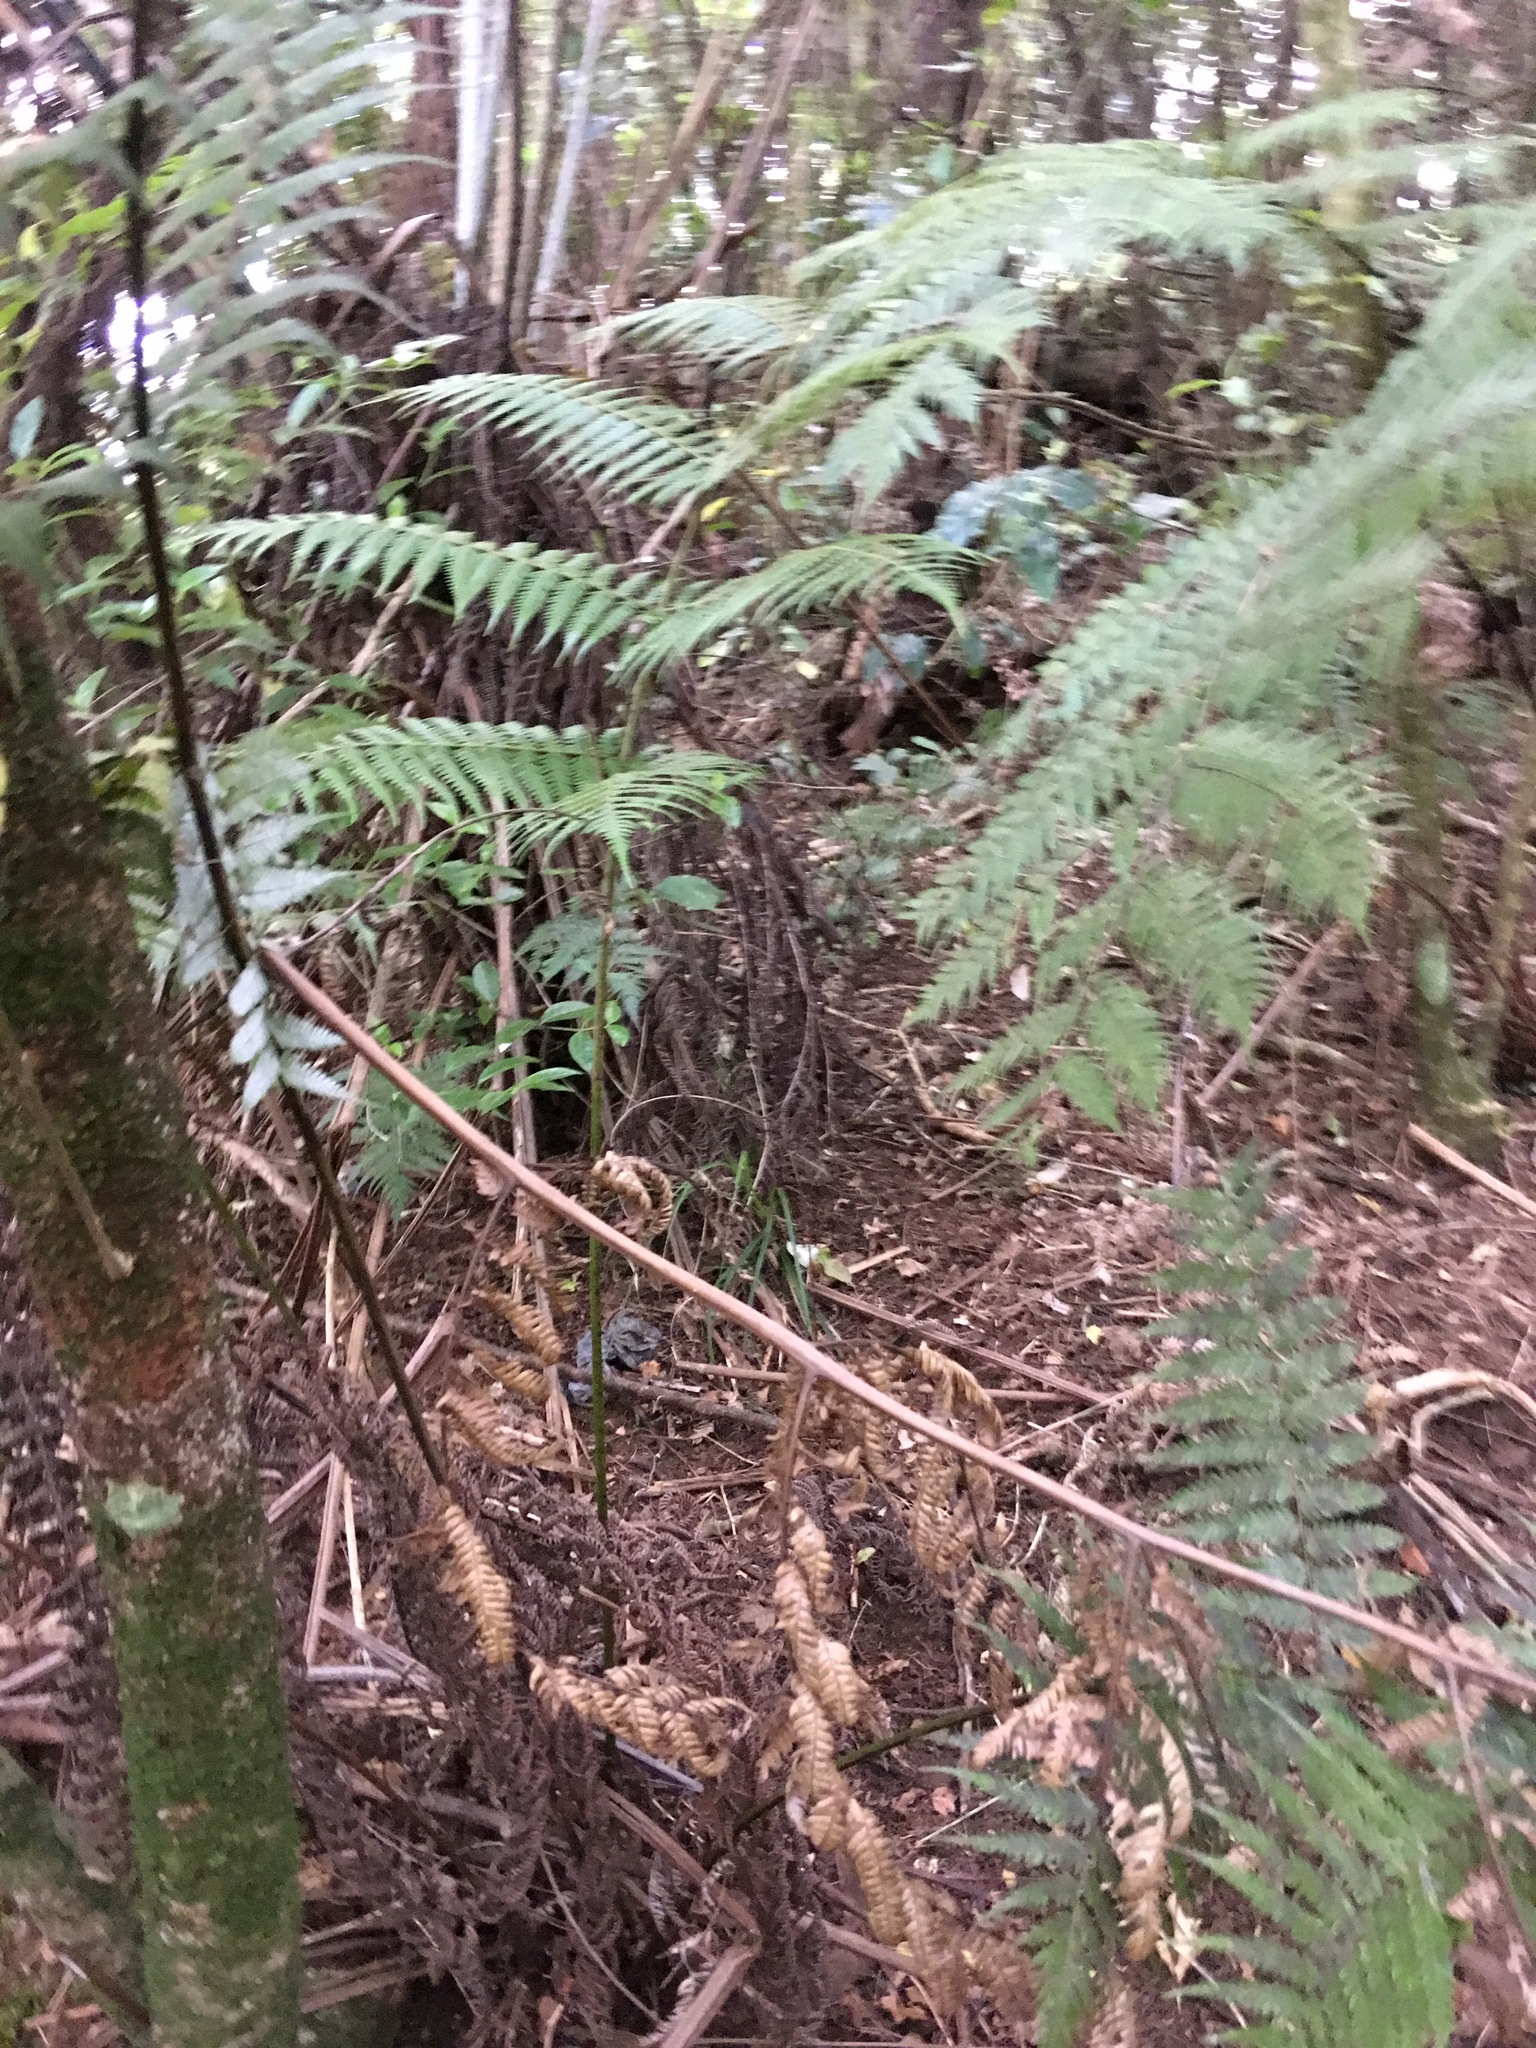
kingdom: Plantae
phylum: Tracheophyta
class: Magnoliopsida
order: Malpighiales
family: Passifloraceae
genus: Passiflora
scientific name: Passiflora tetrandra
